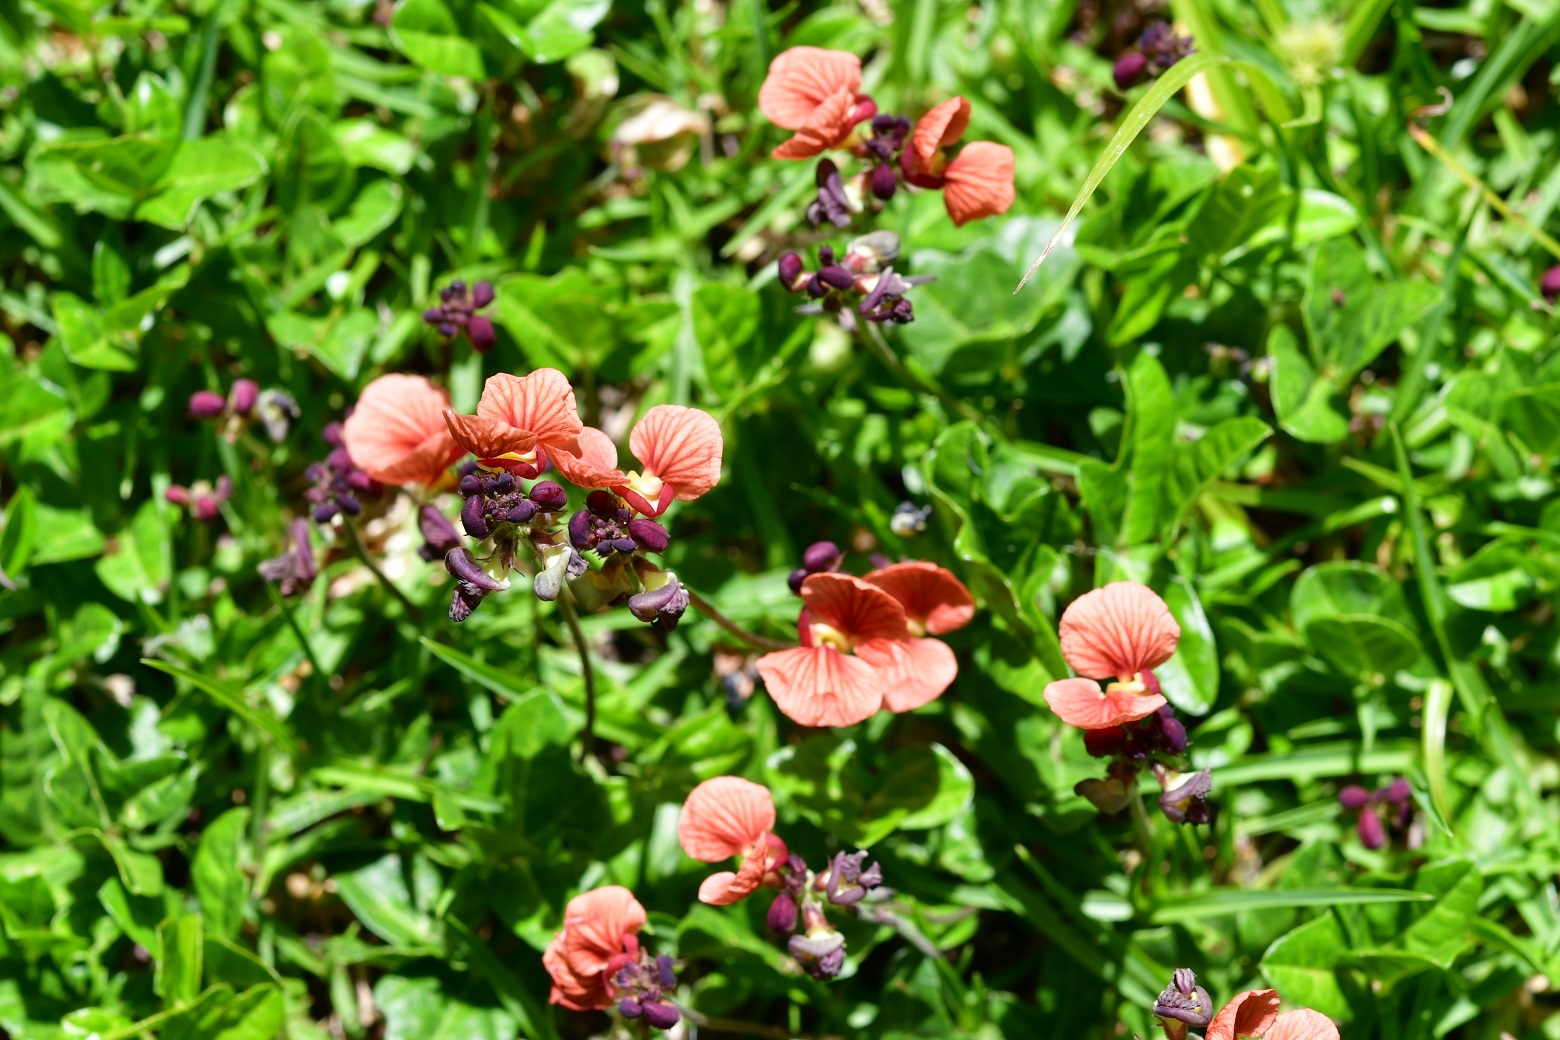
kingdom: Plantae
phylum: Tracheophyta
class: Magnoliopsida
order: Fabales
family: Fabaceae
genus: Macroptilium
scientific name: Macroptilium gibbosifolium
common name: Variableleaf bushbean
